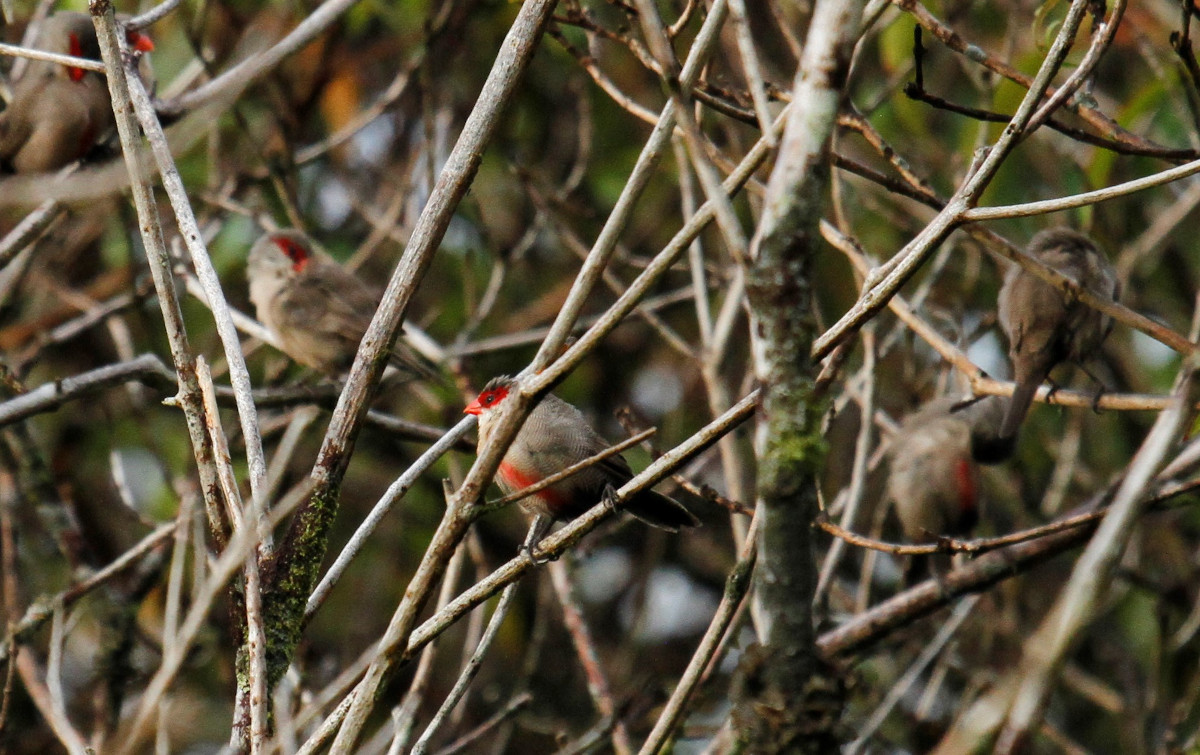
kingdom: Animalia
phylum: Chordata
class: Aves
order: Passeriformes
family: Estrildidae
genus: Estrilda
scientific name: Estrilda astrild
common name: Common waxbill
